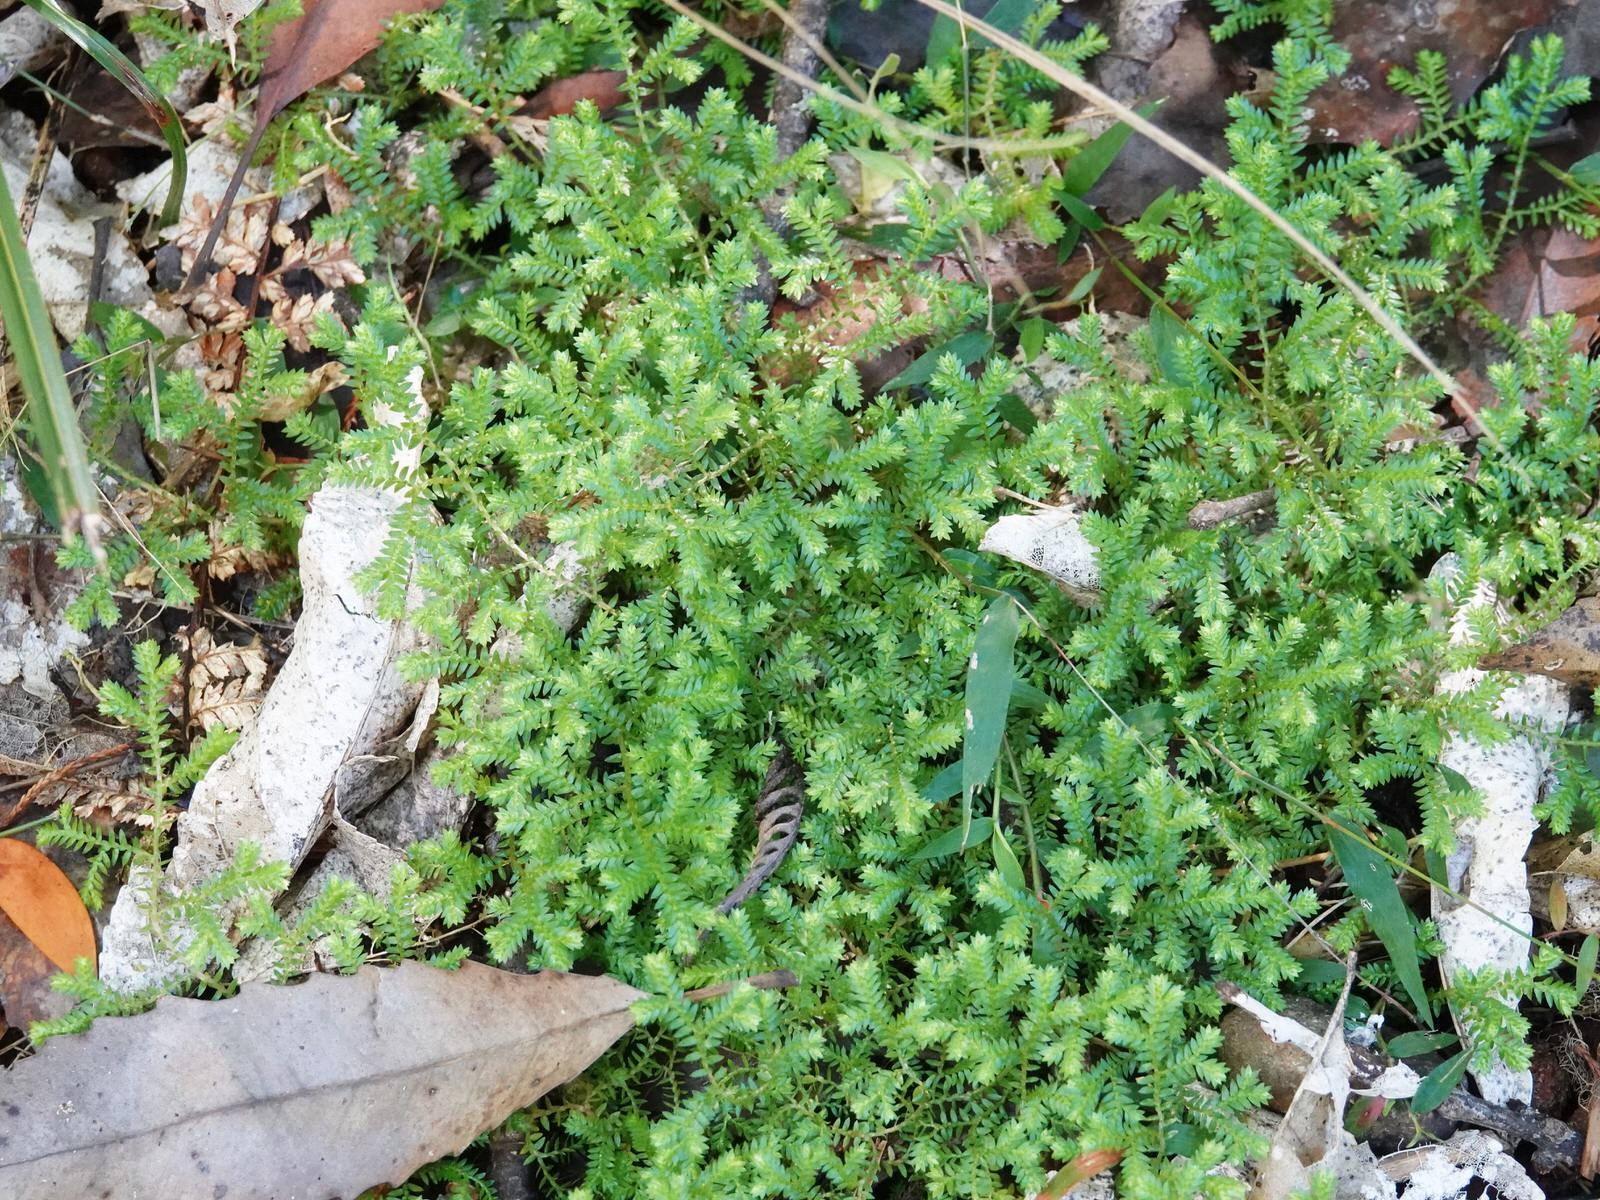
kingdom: Plantae
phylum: Tracheophyta
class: Lycopodiopsida
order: Selaginellales
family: Selaginellaceae
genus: Selaginella
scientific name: Selaginella kraussiana
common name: Krauss' spikemoss
